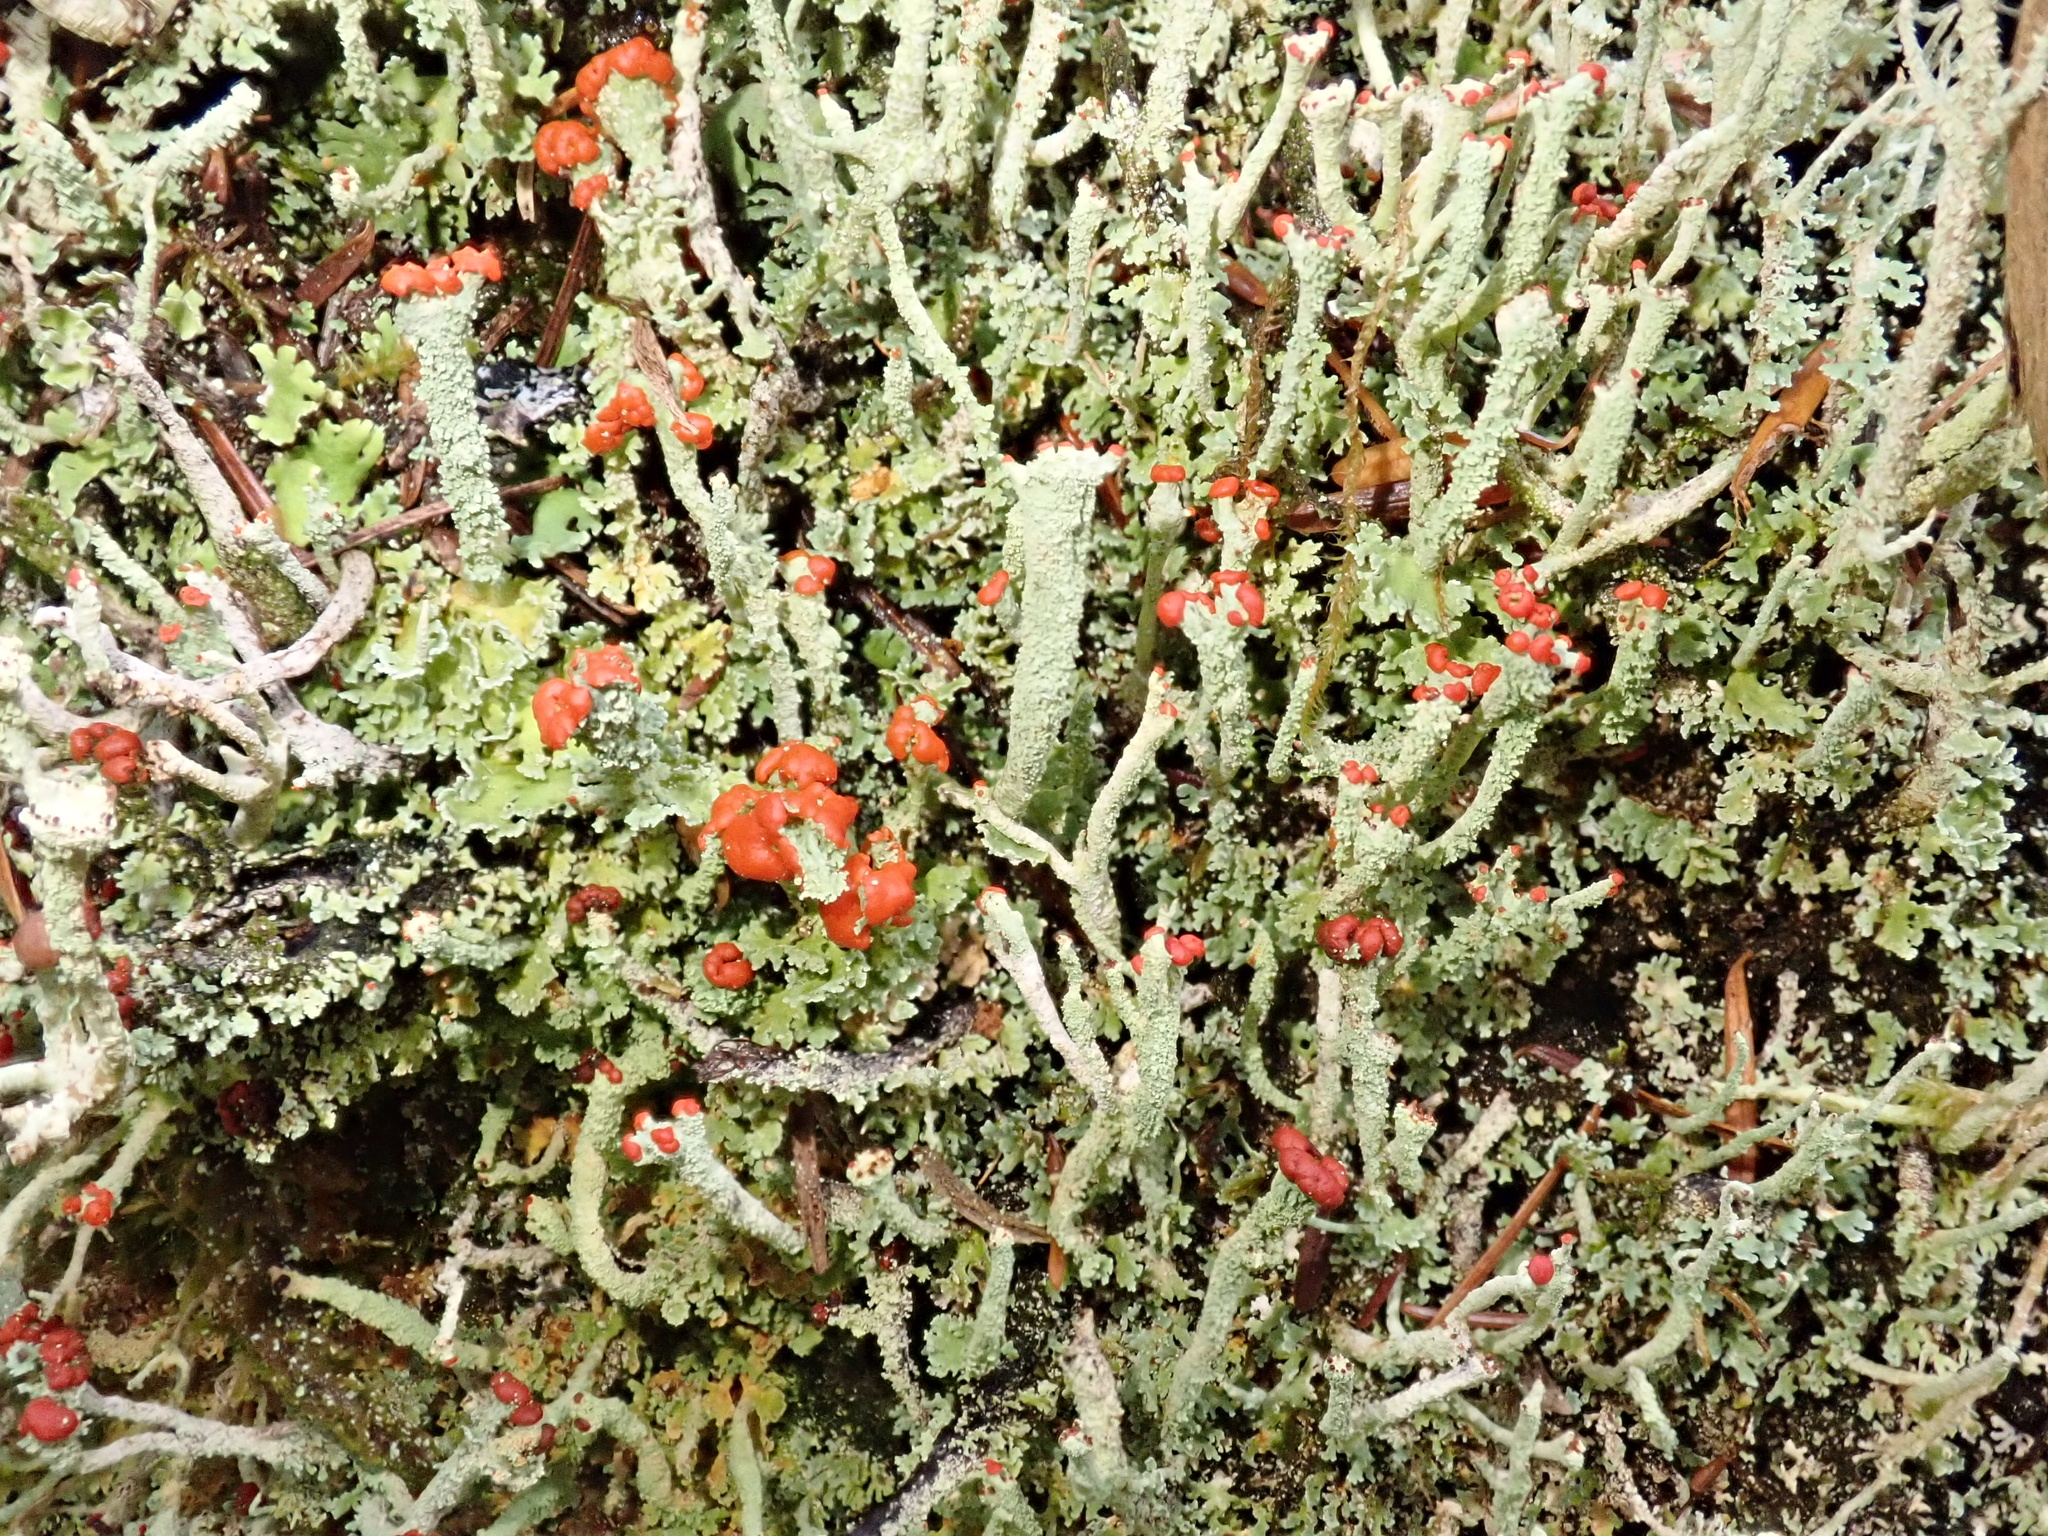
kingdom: Fungi
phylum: Ascomycota
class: Lecanoromycetes
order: Lecanorales
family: Cladoniaceae
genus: Cladonia
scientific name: Cladonia macilenta
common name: Lipstick powderhorn
